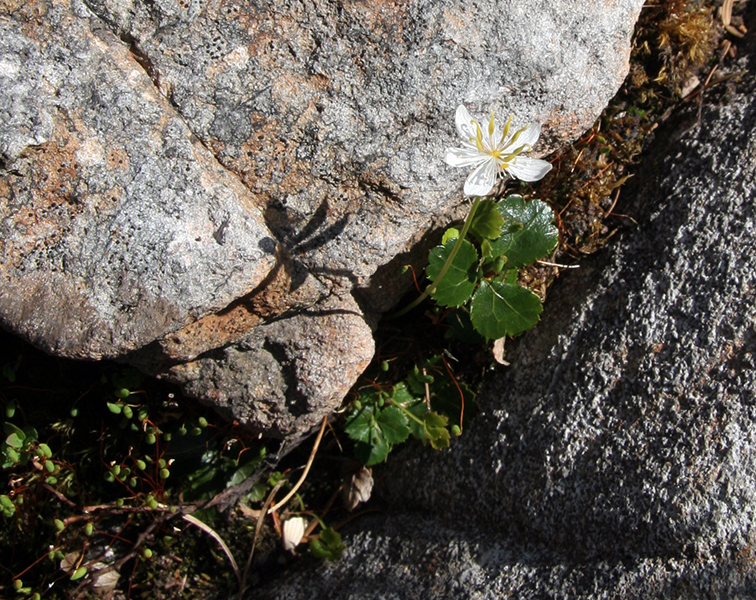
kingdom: Plantae
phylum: Tracheophyta
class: Magnoliopsida
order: Ranunculales
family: Ranunculaceae
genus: Coptis
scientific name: Coptis trifolia
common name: Canker-root
